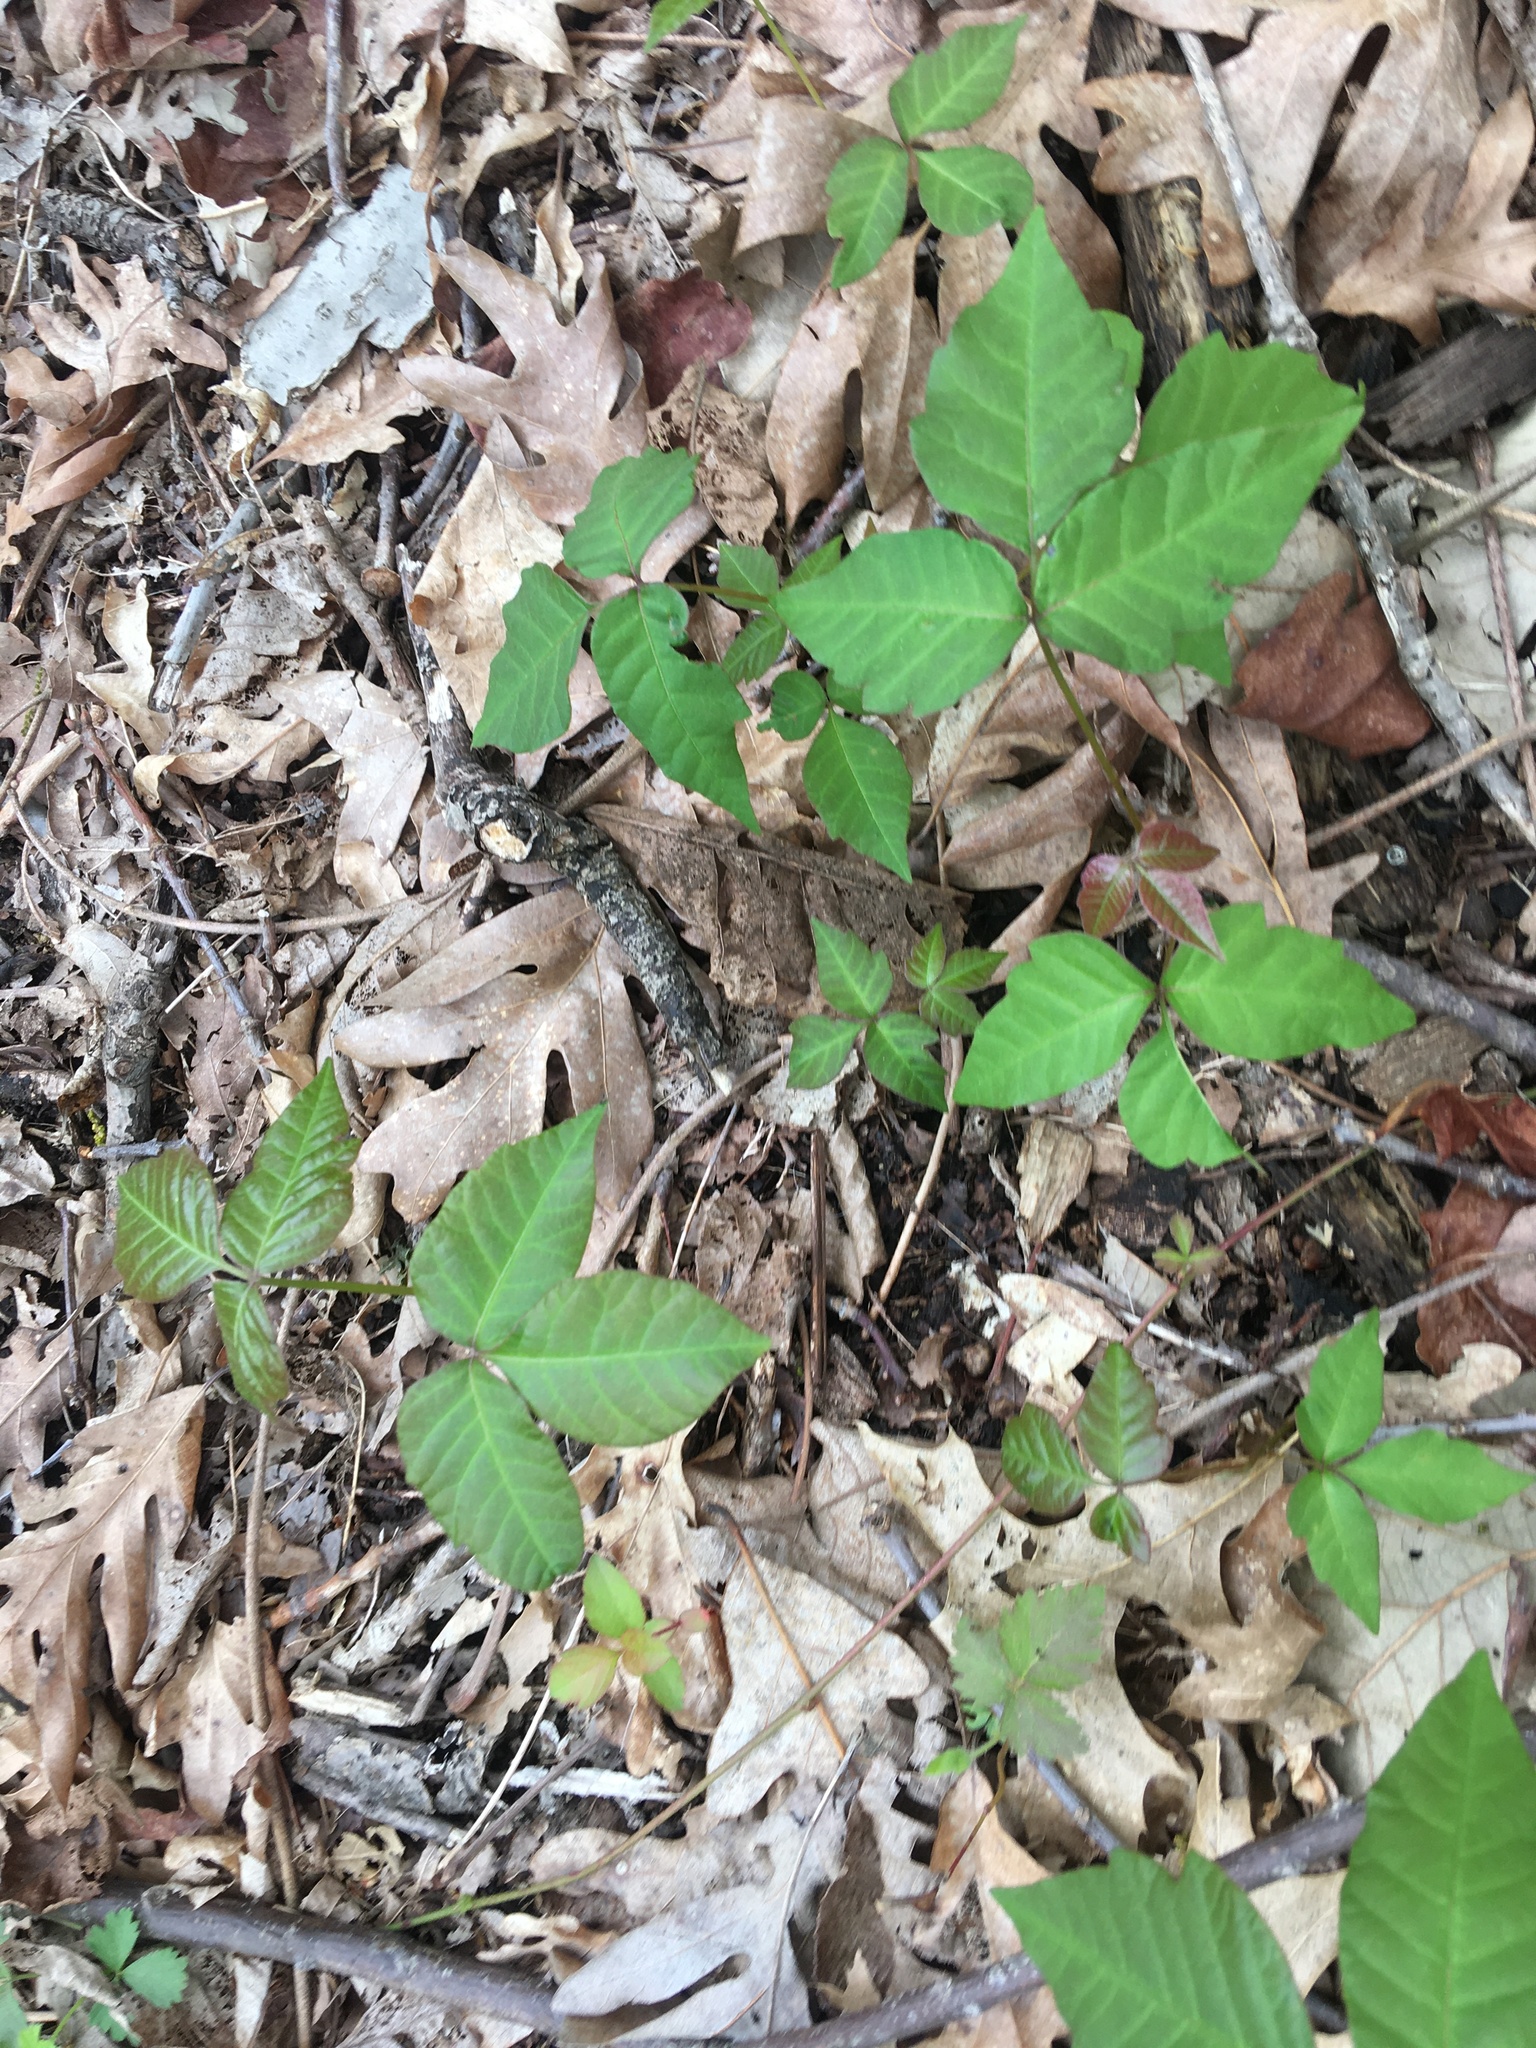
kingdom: Plantae
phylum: Tracheophyta
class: Magnoliopsida
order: Sapindales
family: Anacardiaceae
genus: Toxicodendron
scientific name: Toxicodendron radicans
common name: Poison ivy
